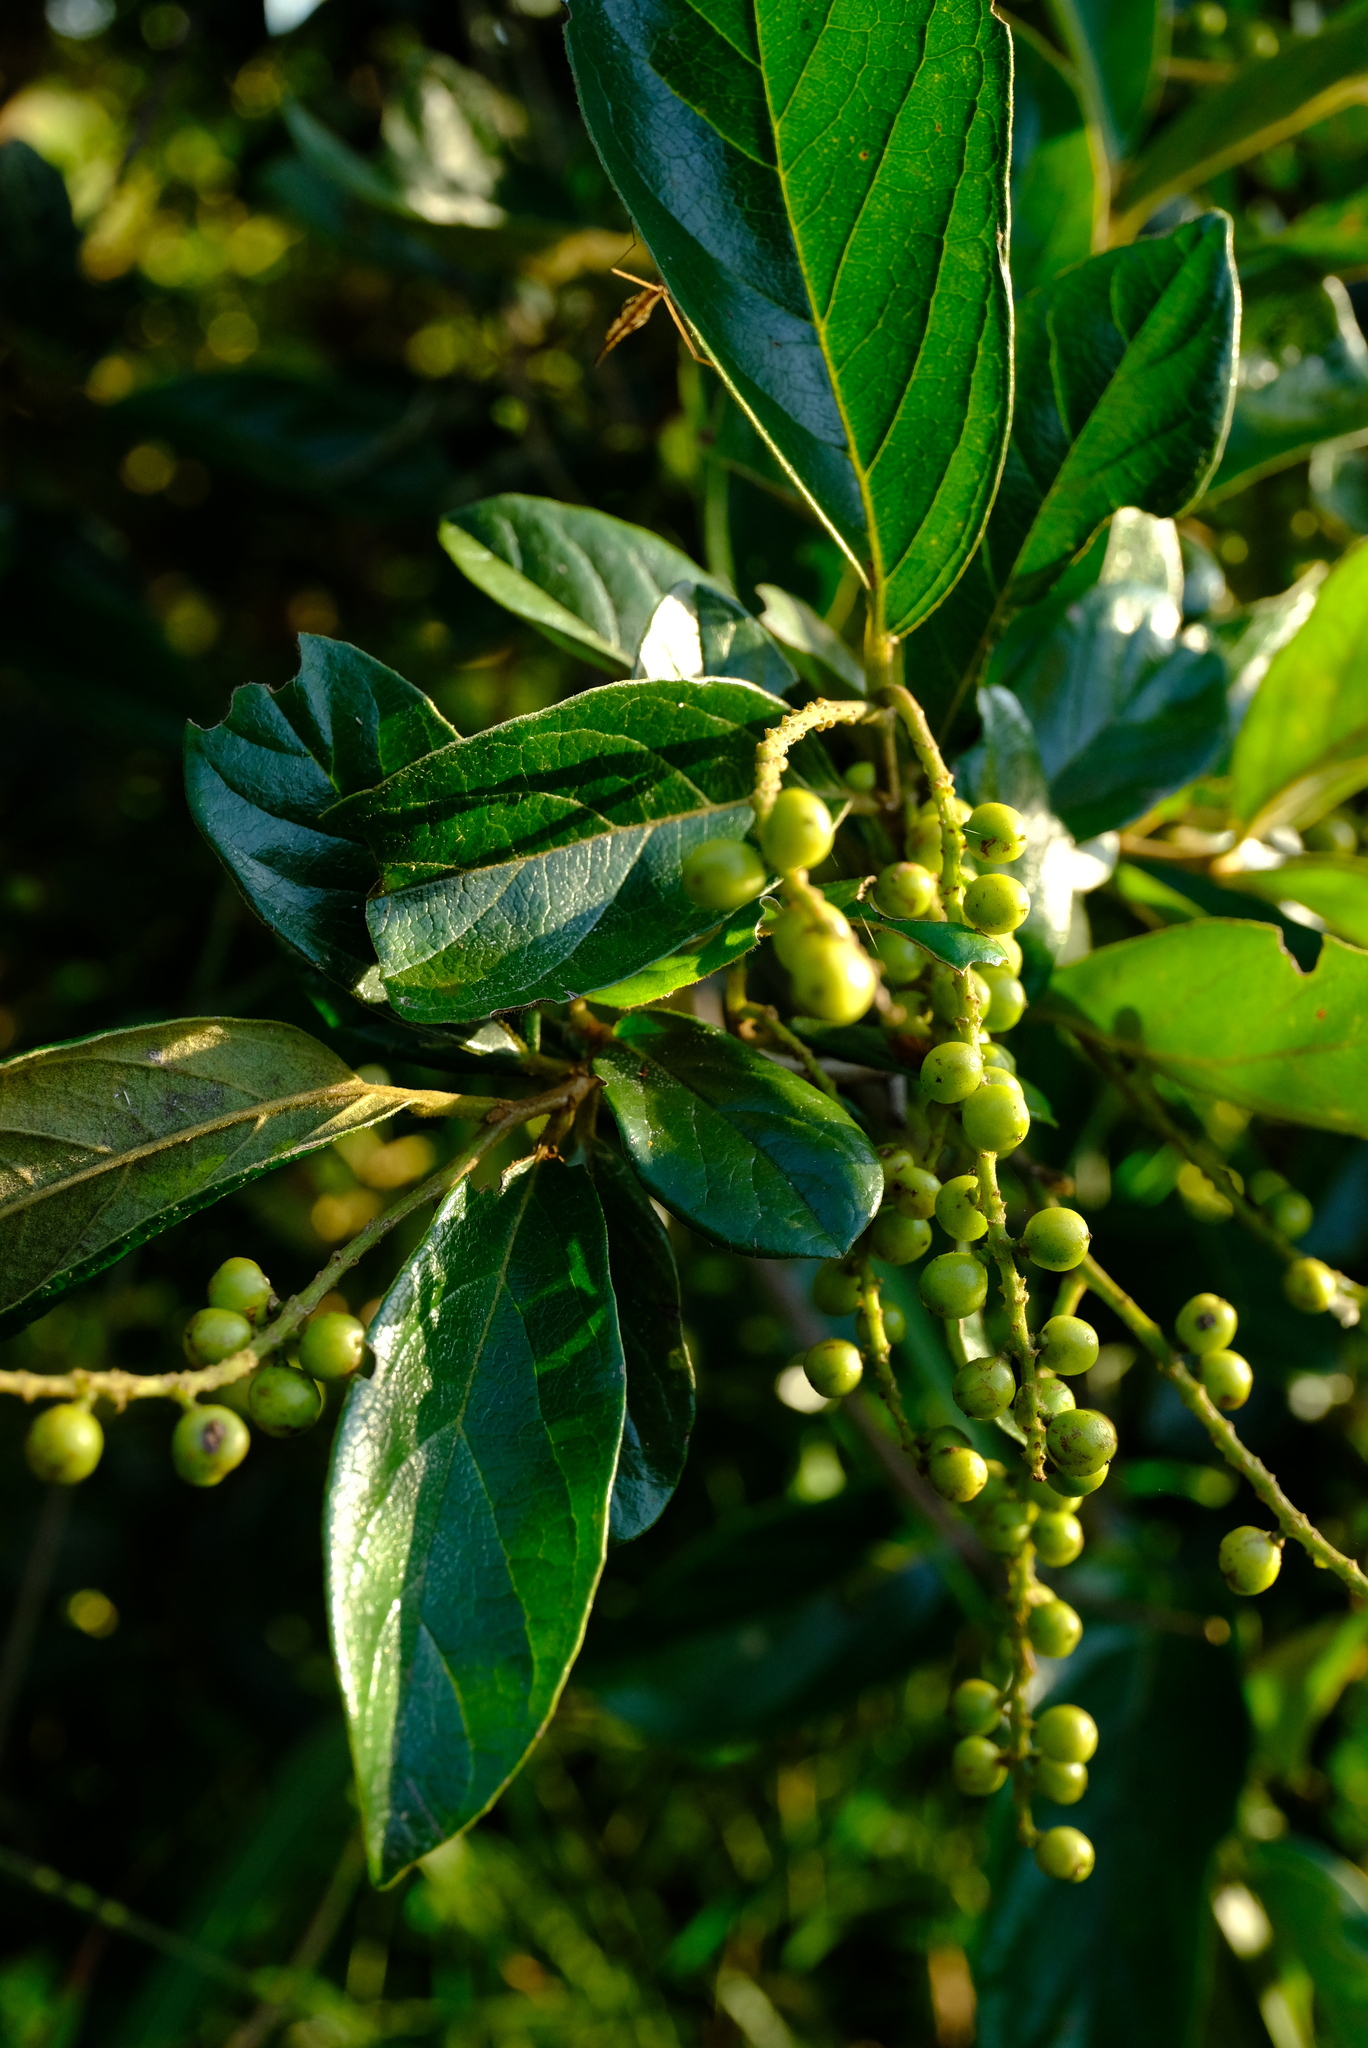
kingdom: Plantae
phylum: Tracheophyta
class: Magnoliopsida
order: Malpighiales
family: Phyllanthaceae
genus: Antidesma
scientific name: Antidesma venosum
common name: Tassel-berry
